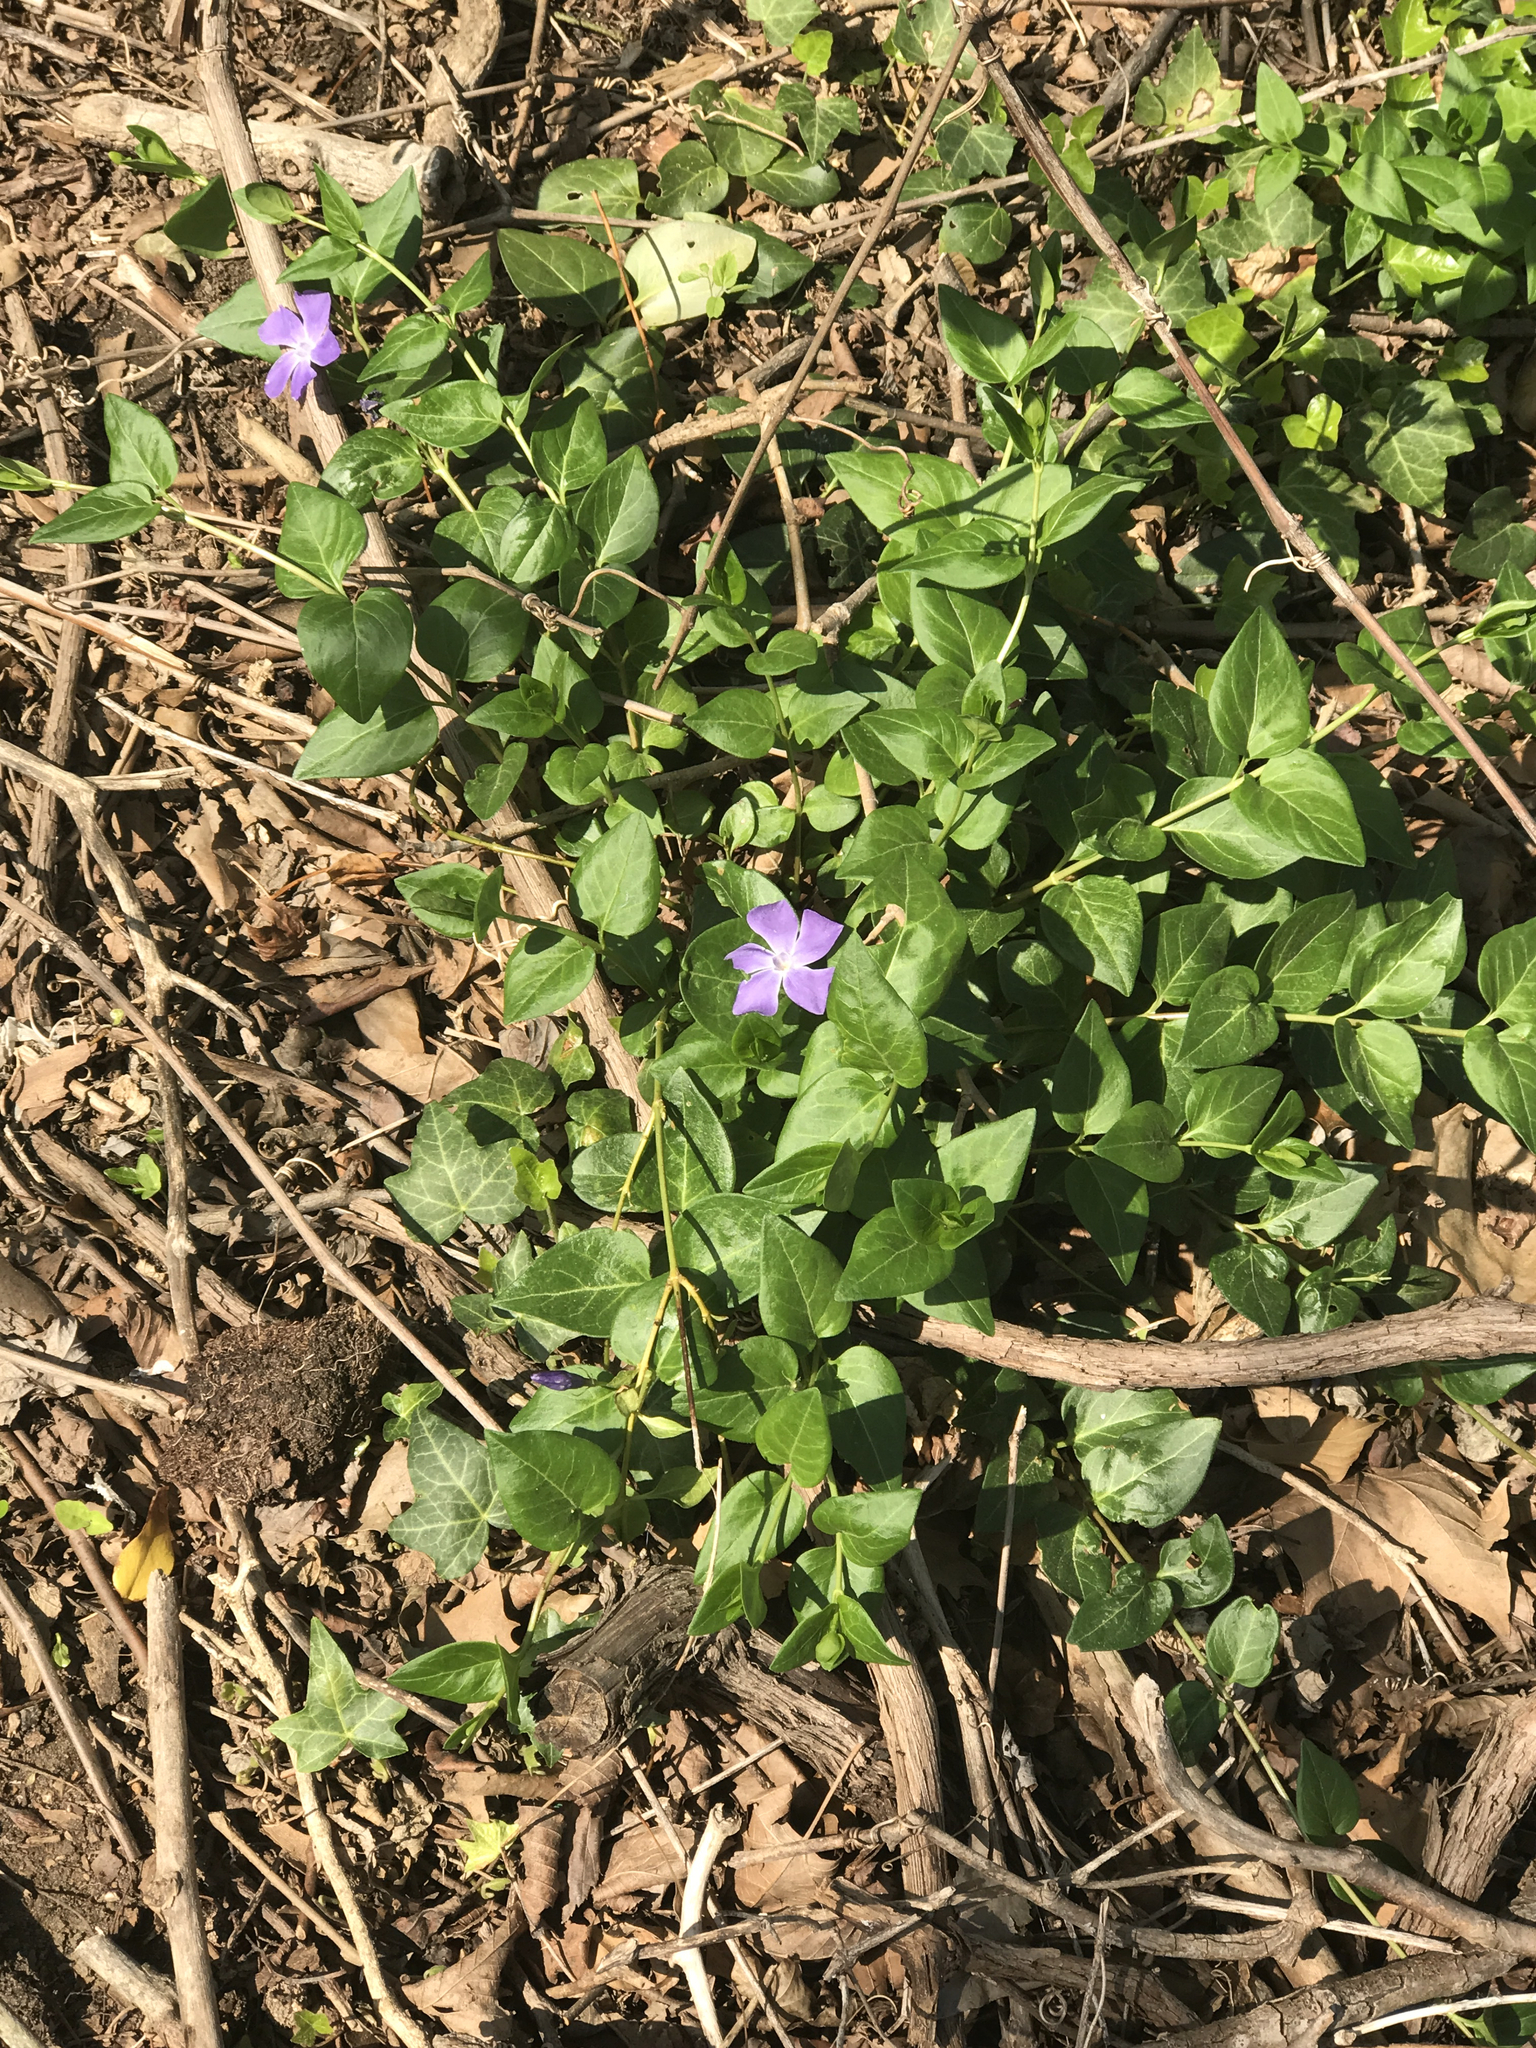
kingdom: Plantae
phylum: Tracheophyta
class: Magnoliopsida
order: Gentianales
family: Apocynaceae
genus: Vinca
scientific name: Vinca major
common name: Greater periwinkle
